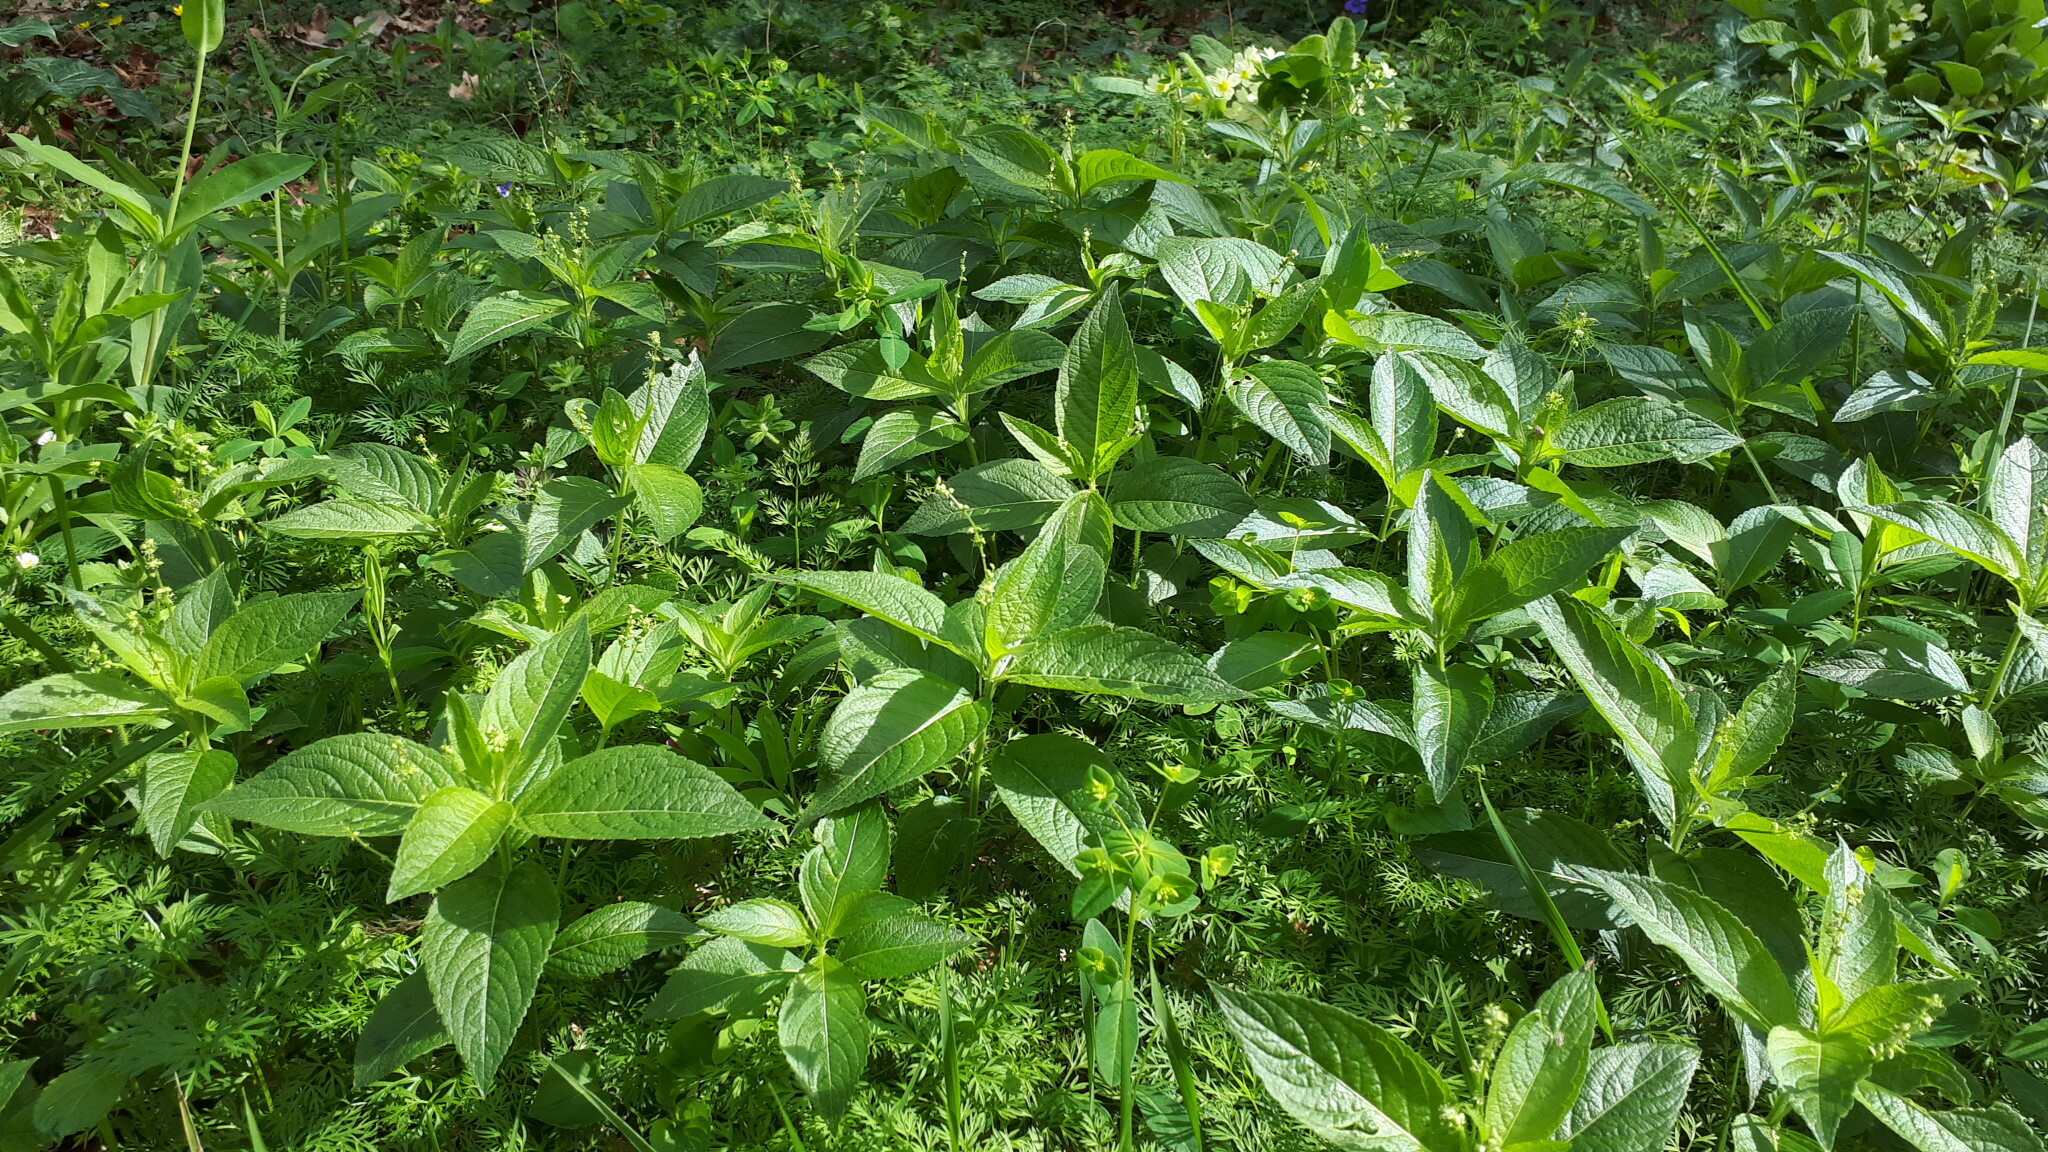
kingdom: Plantae
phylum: Tracheophyta
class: Magnoliopsida
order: Malpighiales
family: Euphorbiaceae
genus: Mercurialis
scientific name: Mercurialis perennis
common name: Dog mercury
